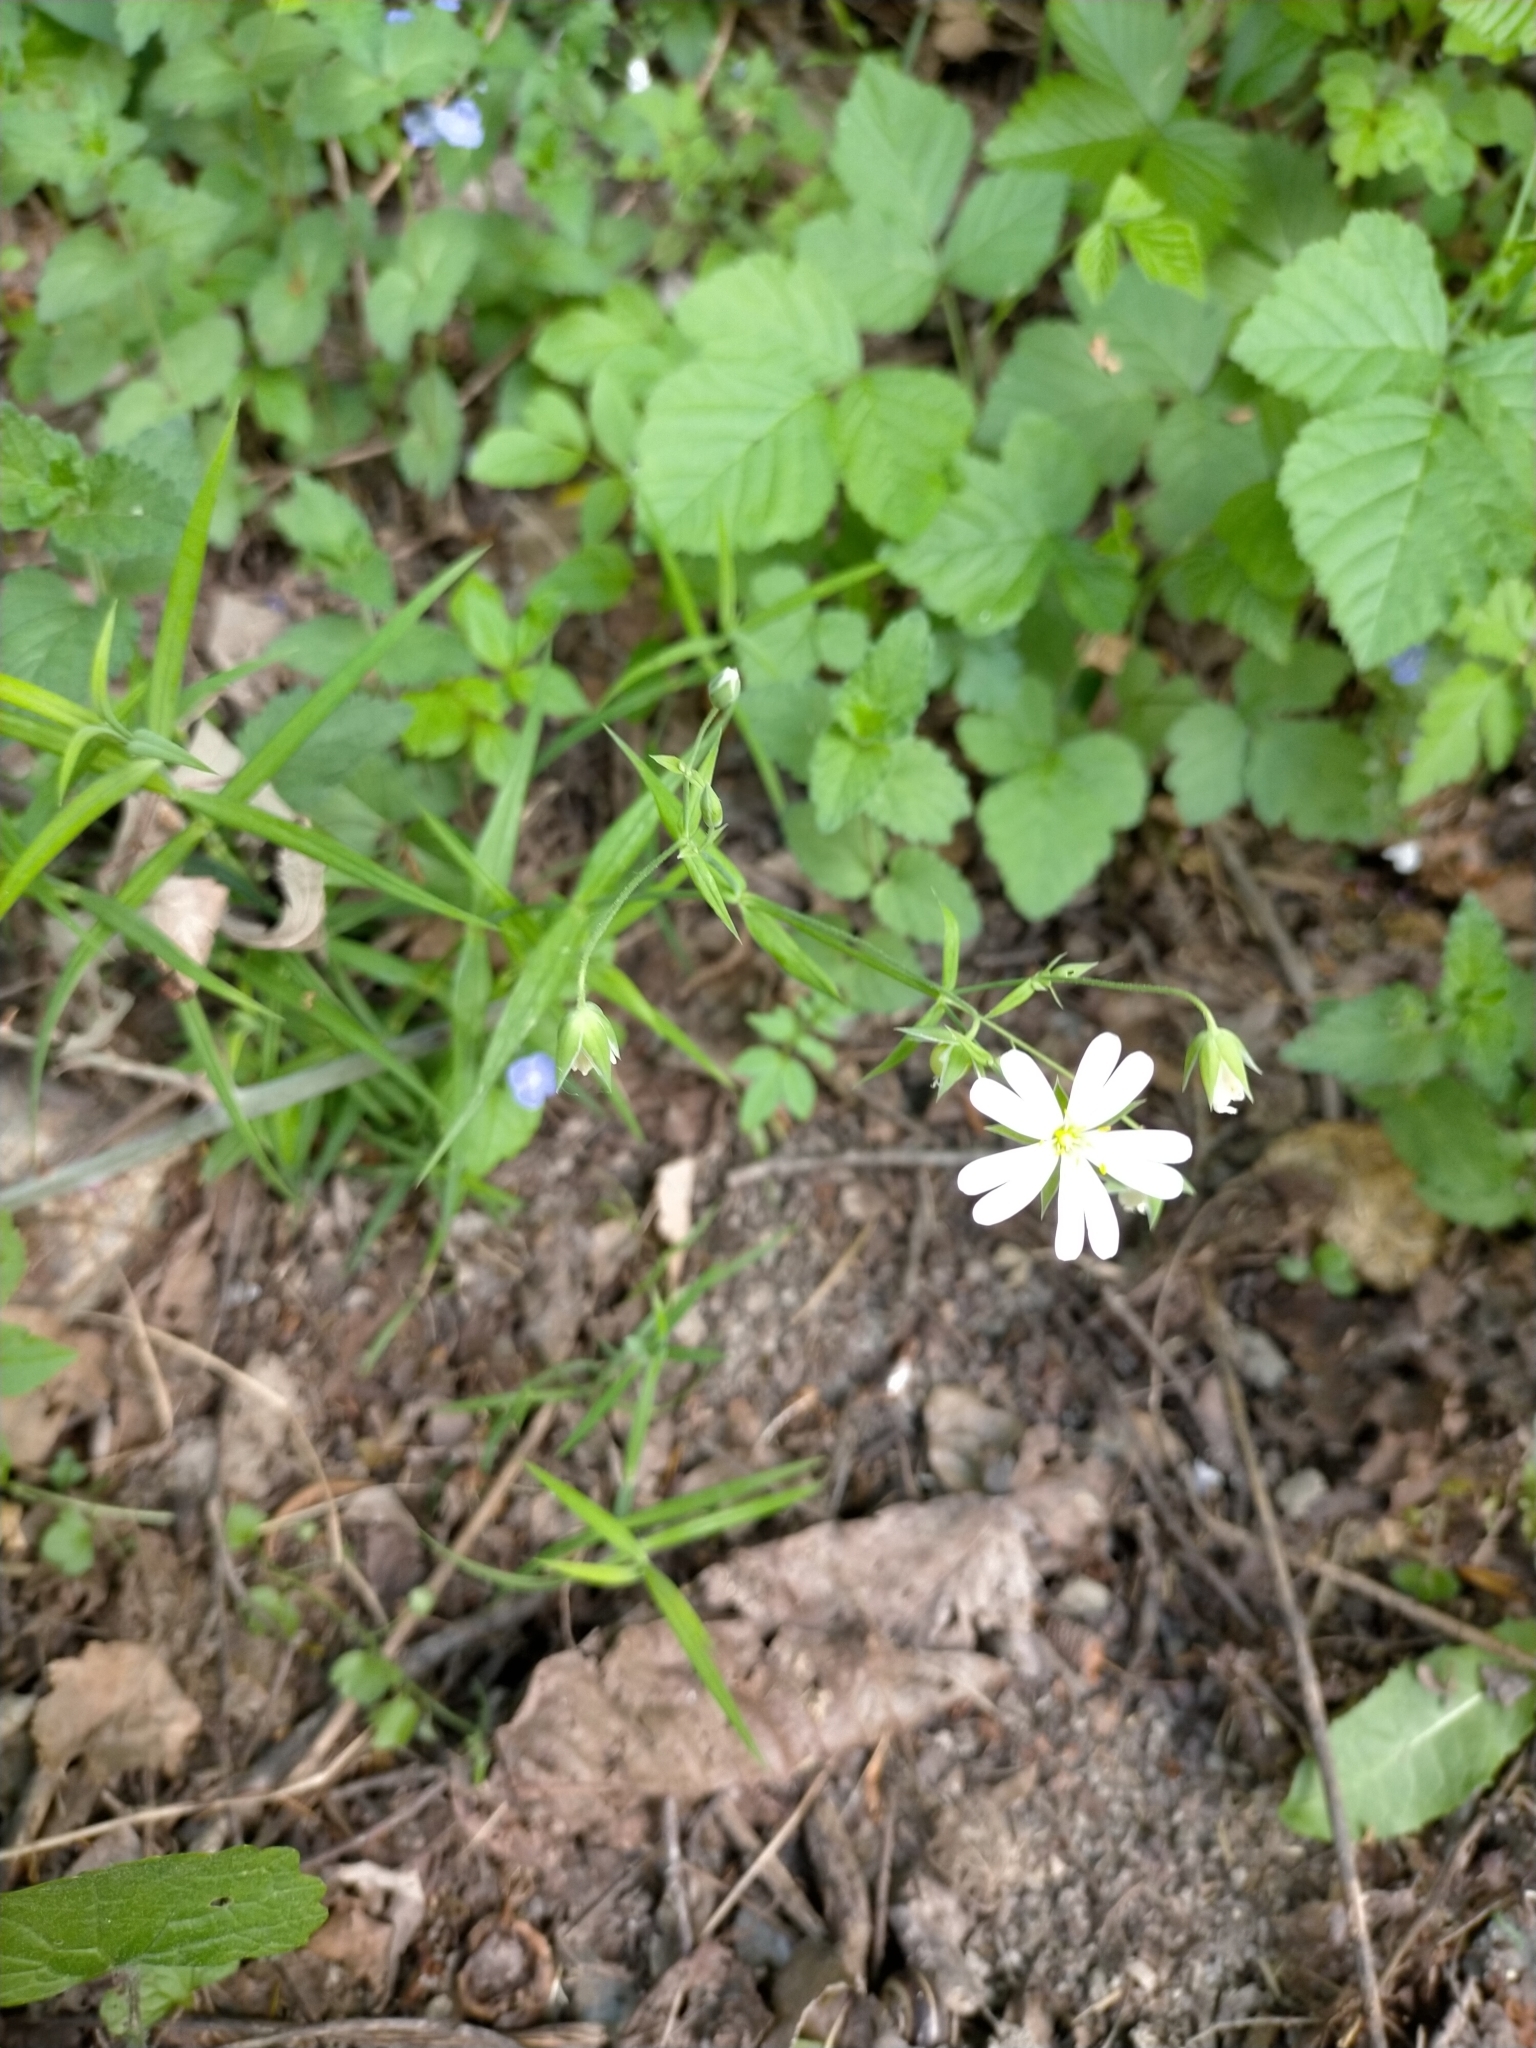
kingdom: Plantae
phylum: Tracheophyta
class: Magnoliopsida
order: Caryophyllales
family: Caryophyllaceae
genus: Rabelera
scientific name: Rabelera holostea
